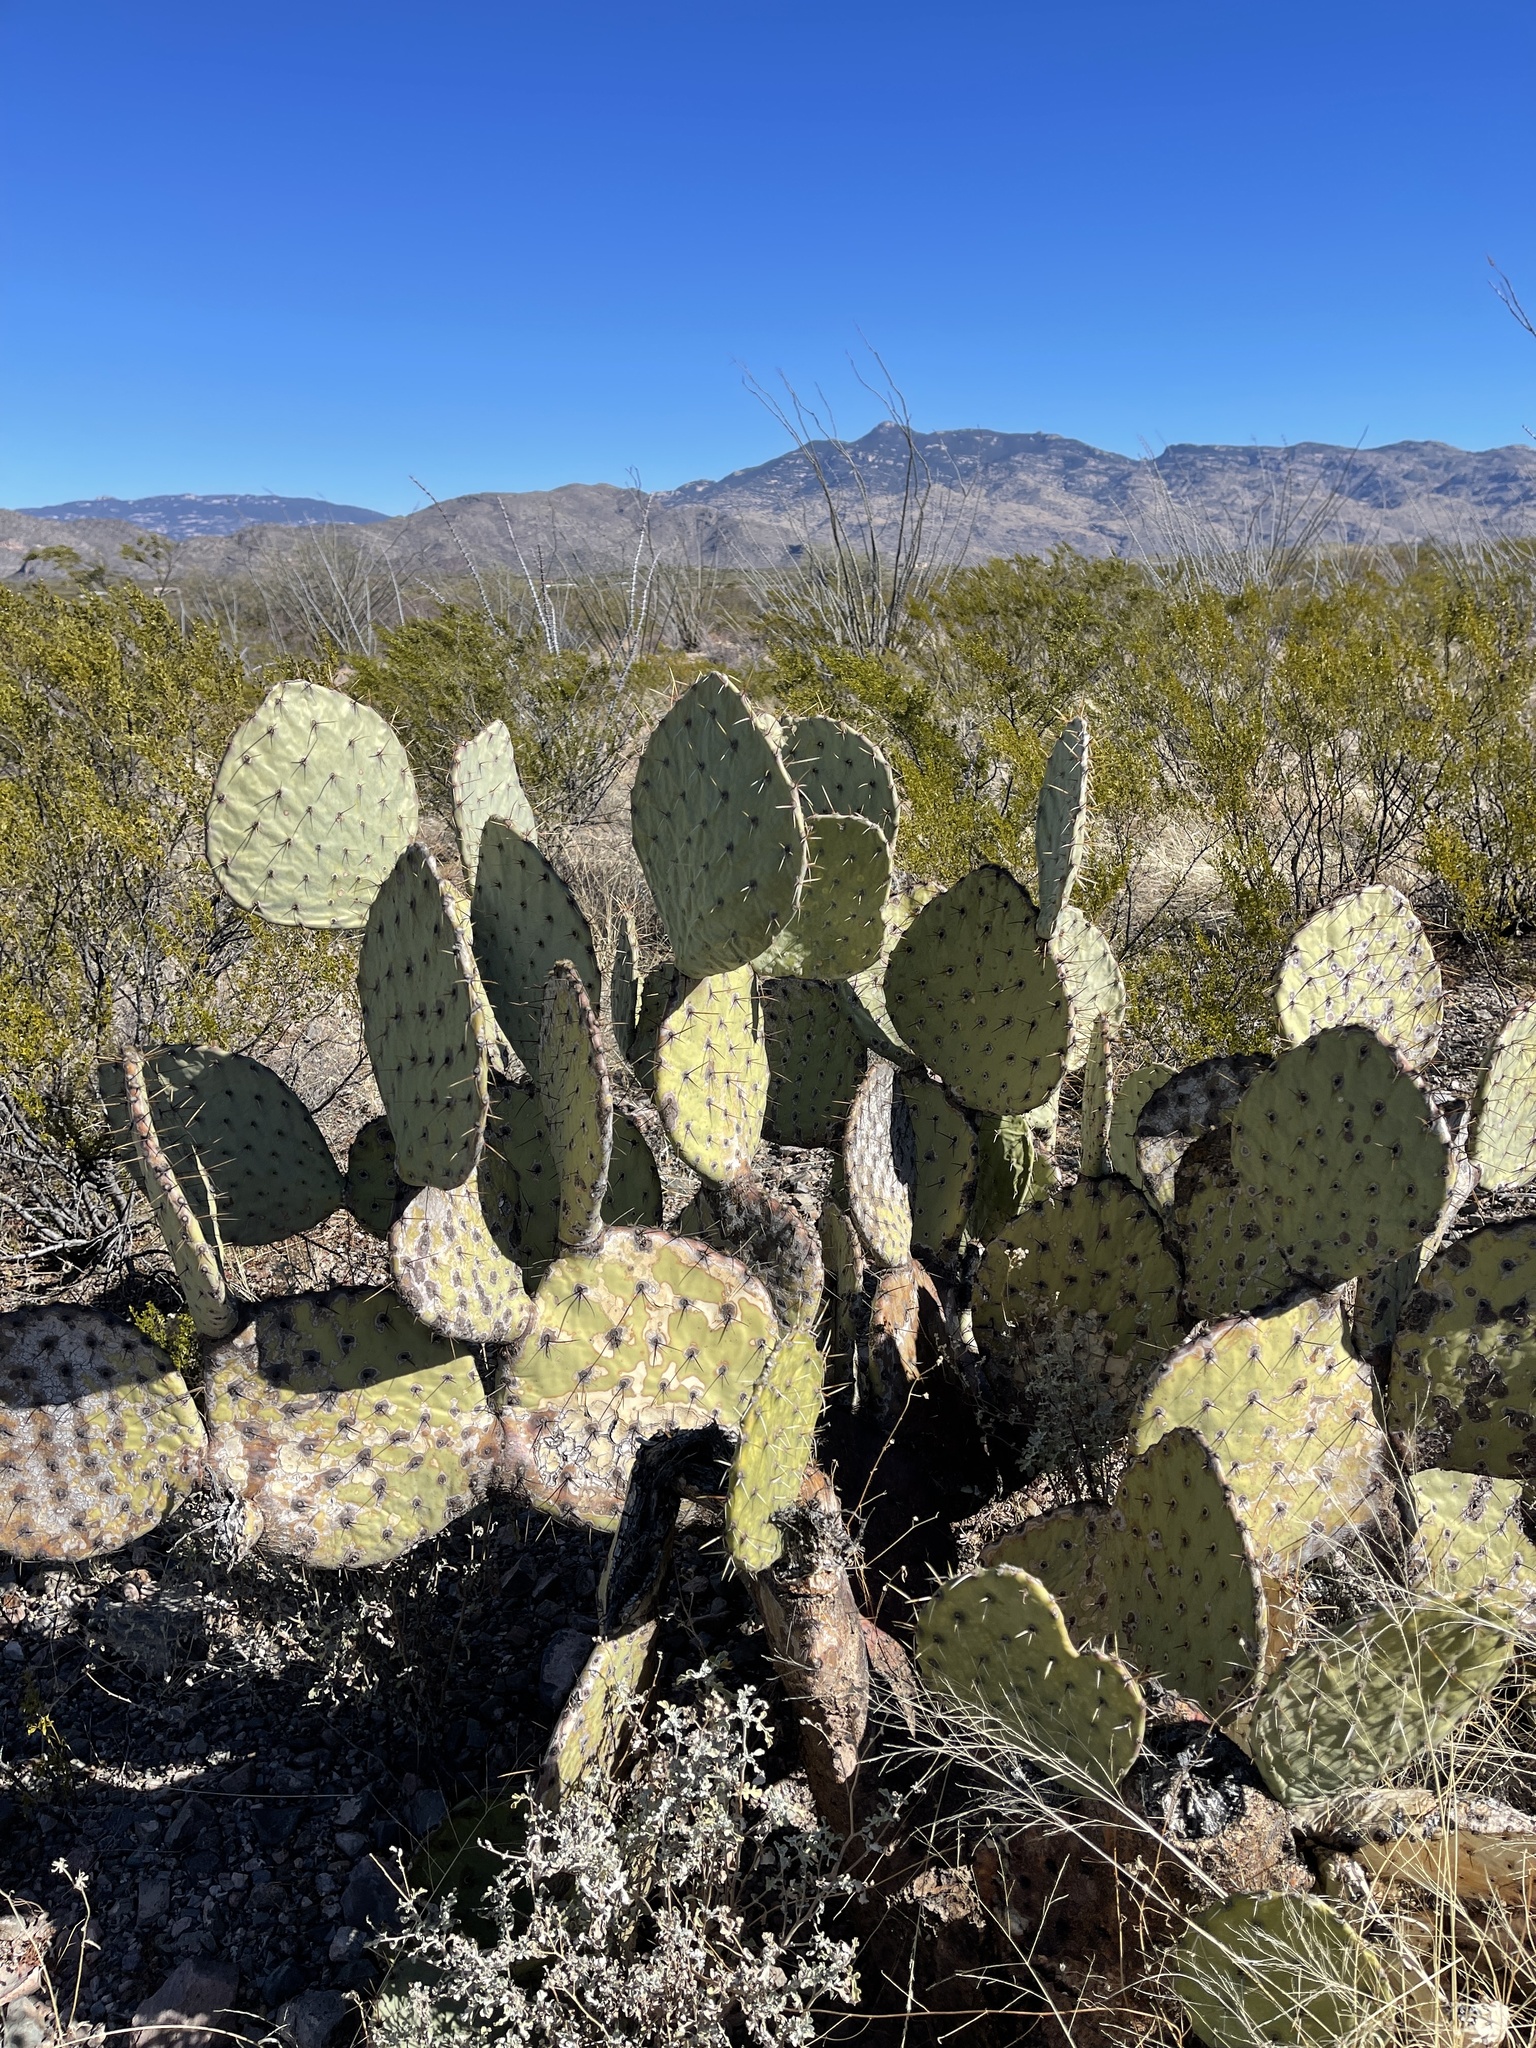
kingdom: Plantae
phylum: Tracheophyta
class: Magnoliopsida
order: Caryophyllales
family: Cactaceae
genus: Opuntia
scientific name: Opuntia engelmannii
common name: Cactus-apple
